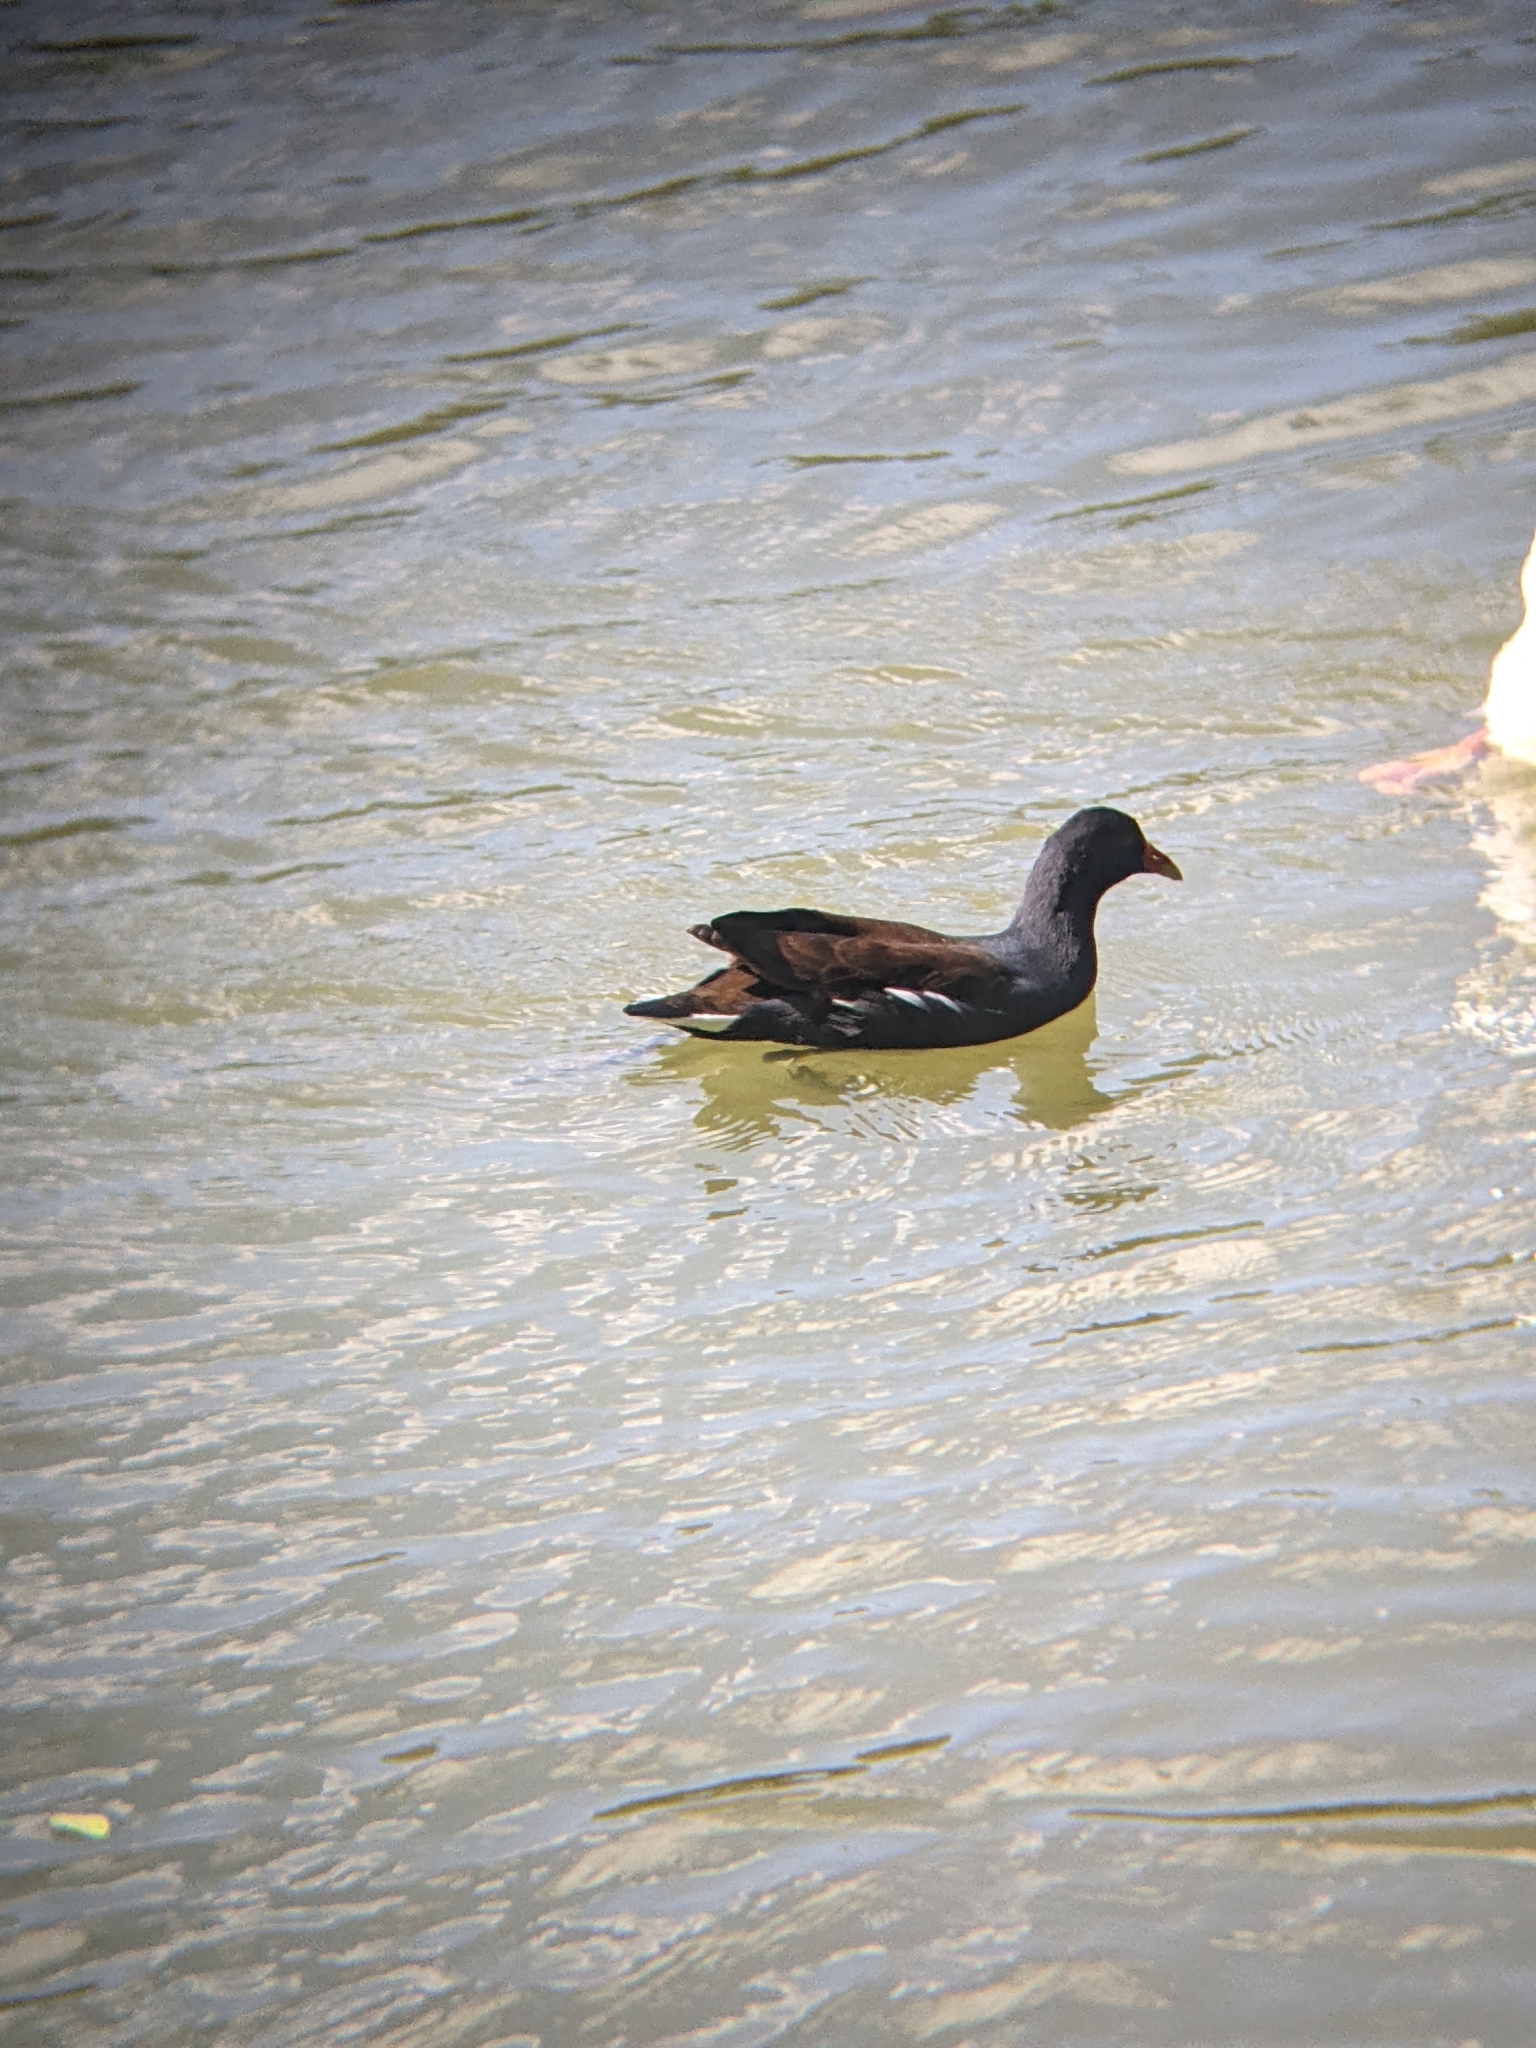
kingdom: Animalia
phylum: Chordata
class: Aves
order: Gruiformes
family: Rallidae
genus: Gallinula
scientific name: Gallinula chloropus
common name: Common moorhen
